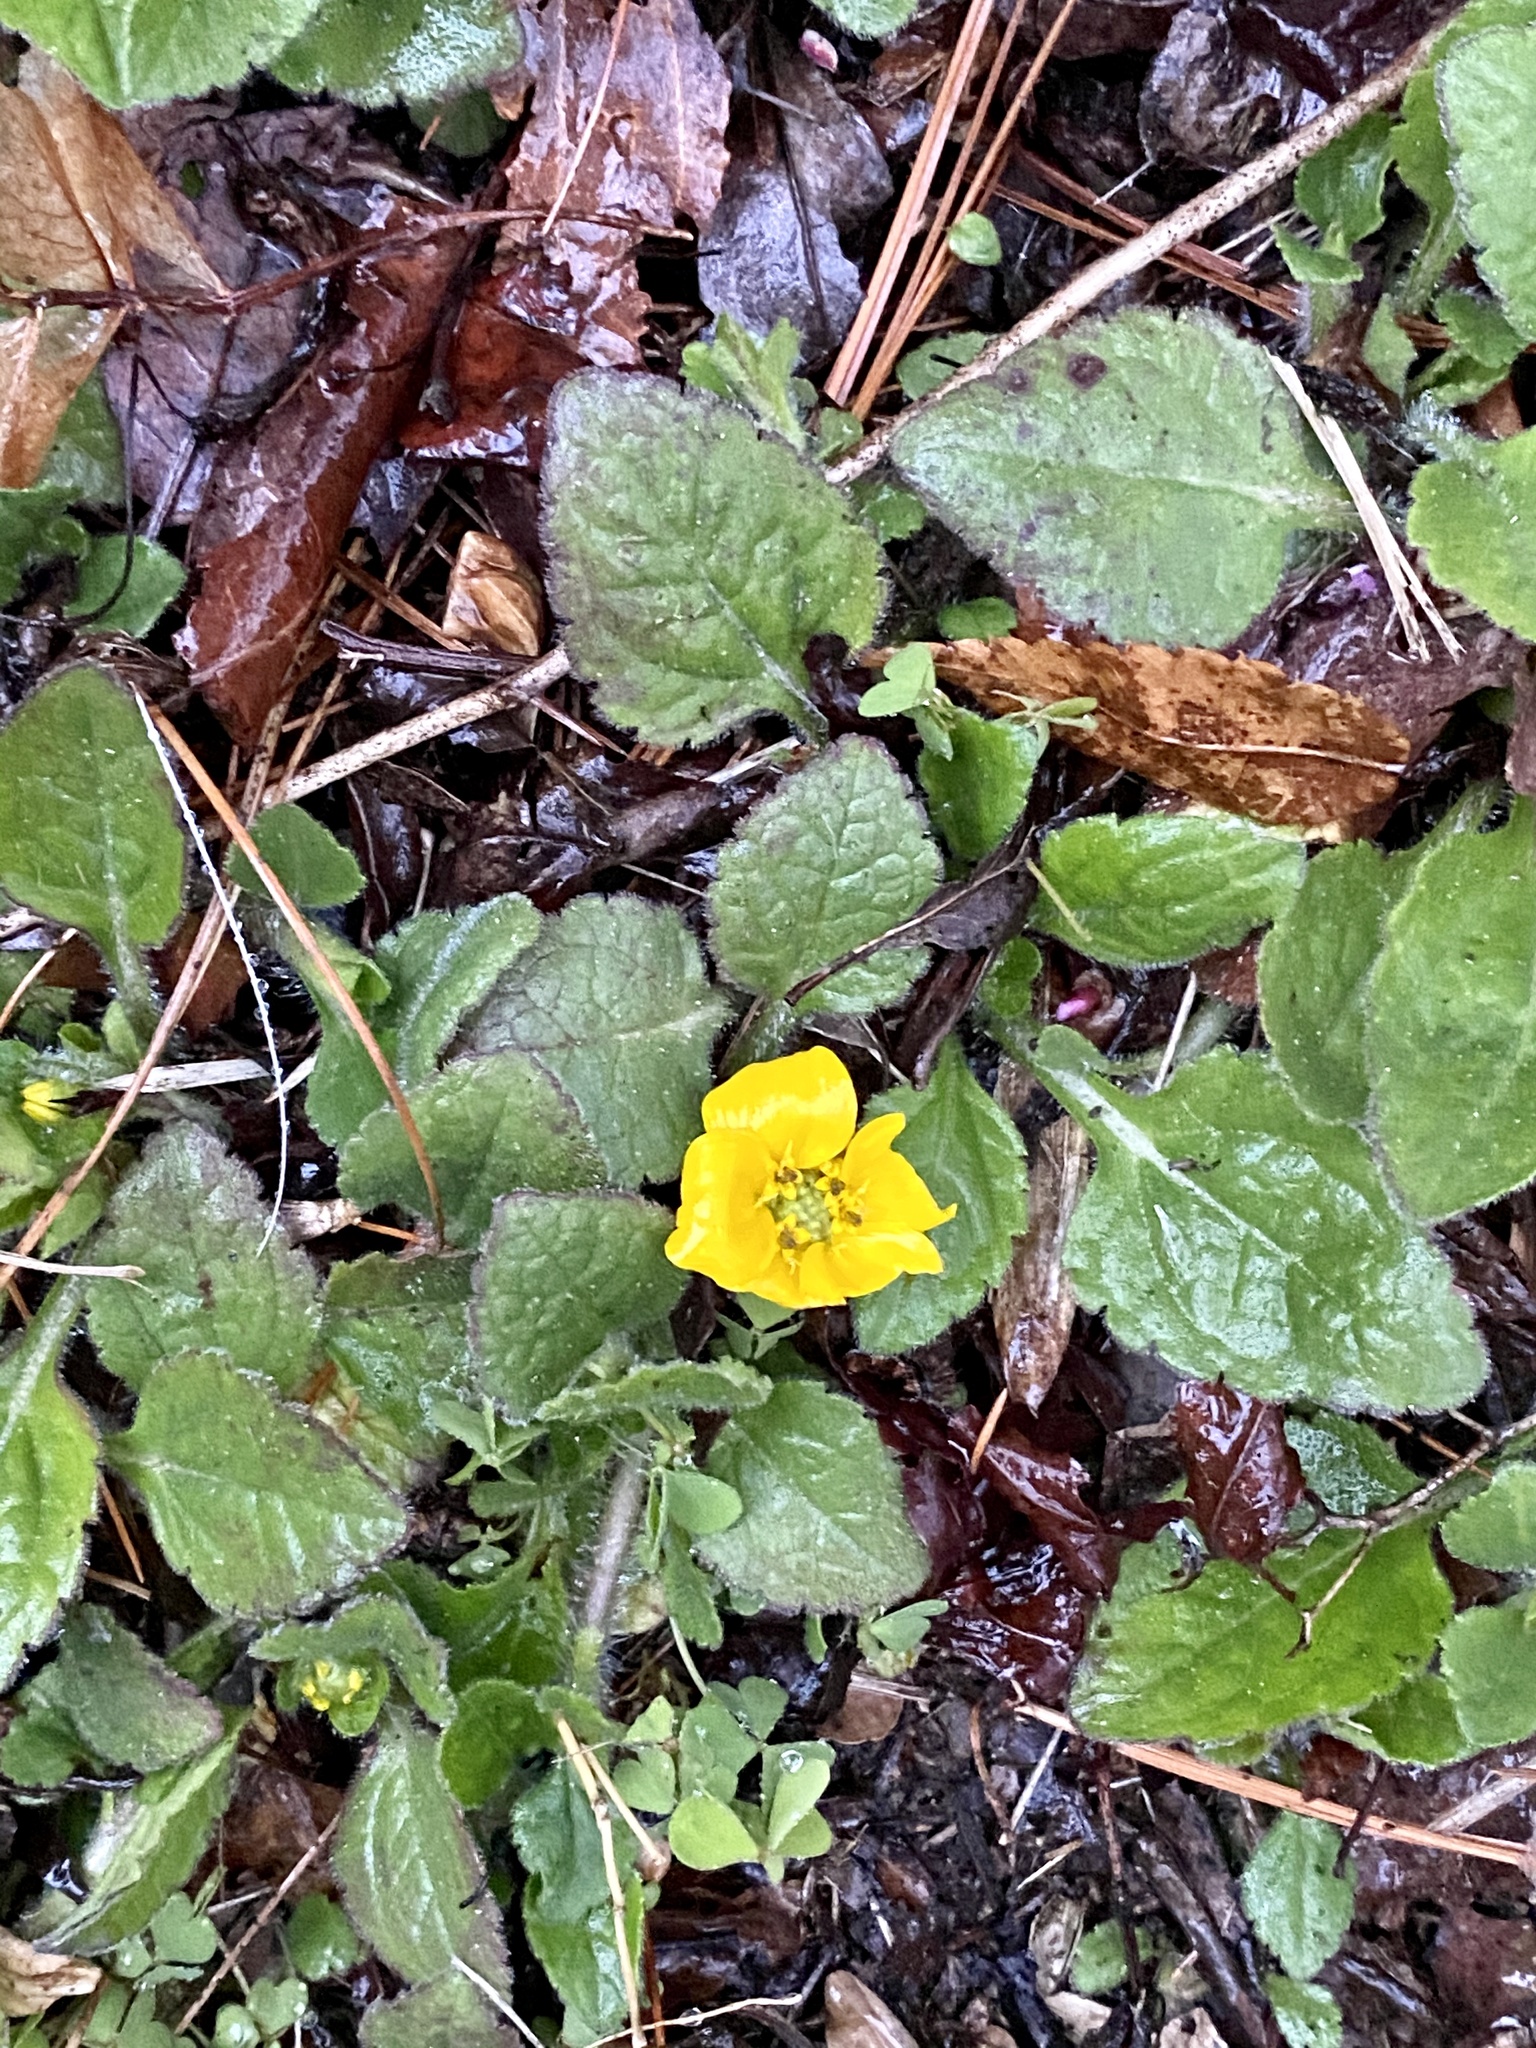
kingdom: Plantae
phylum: Tracheophyta
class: Magnoliopsida
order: Asterales
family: Asteraceae
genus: Chrysogonum
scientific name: Chrysogonum virginianum
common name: Golden-knee
